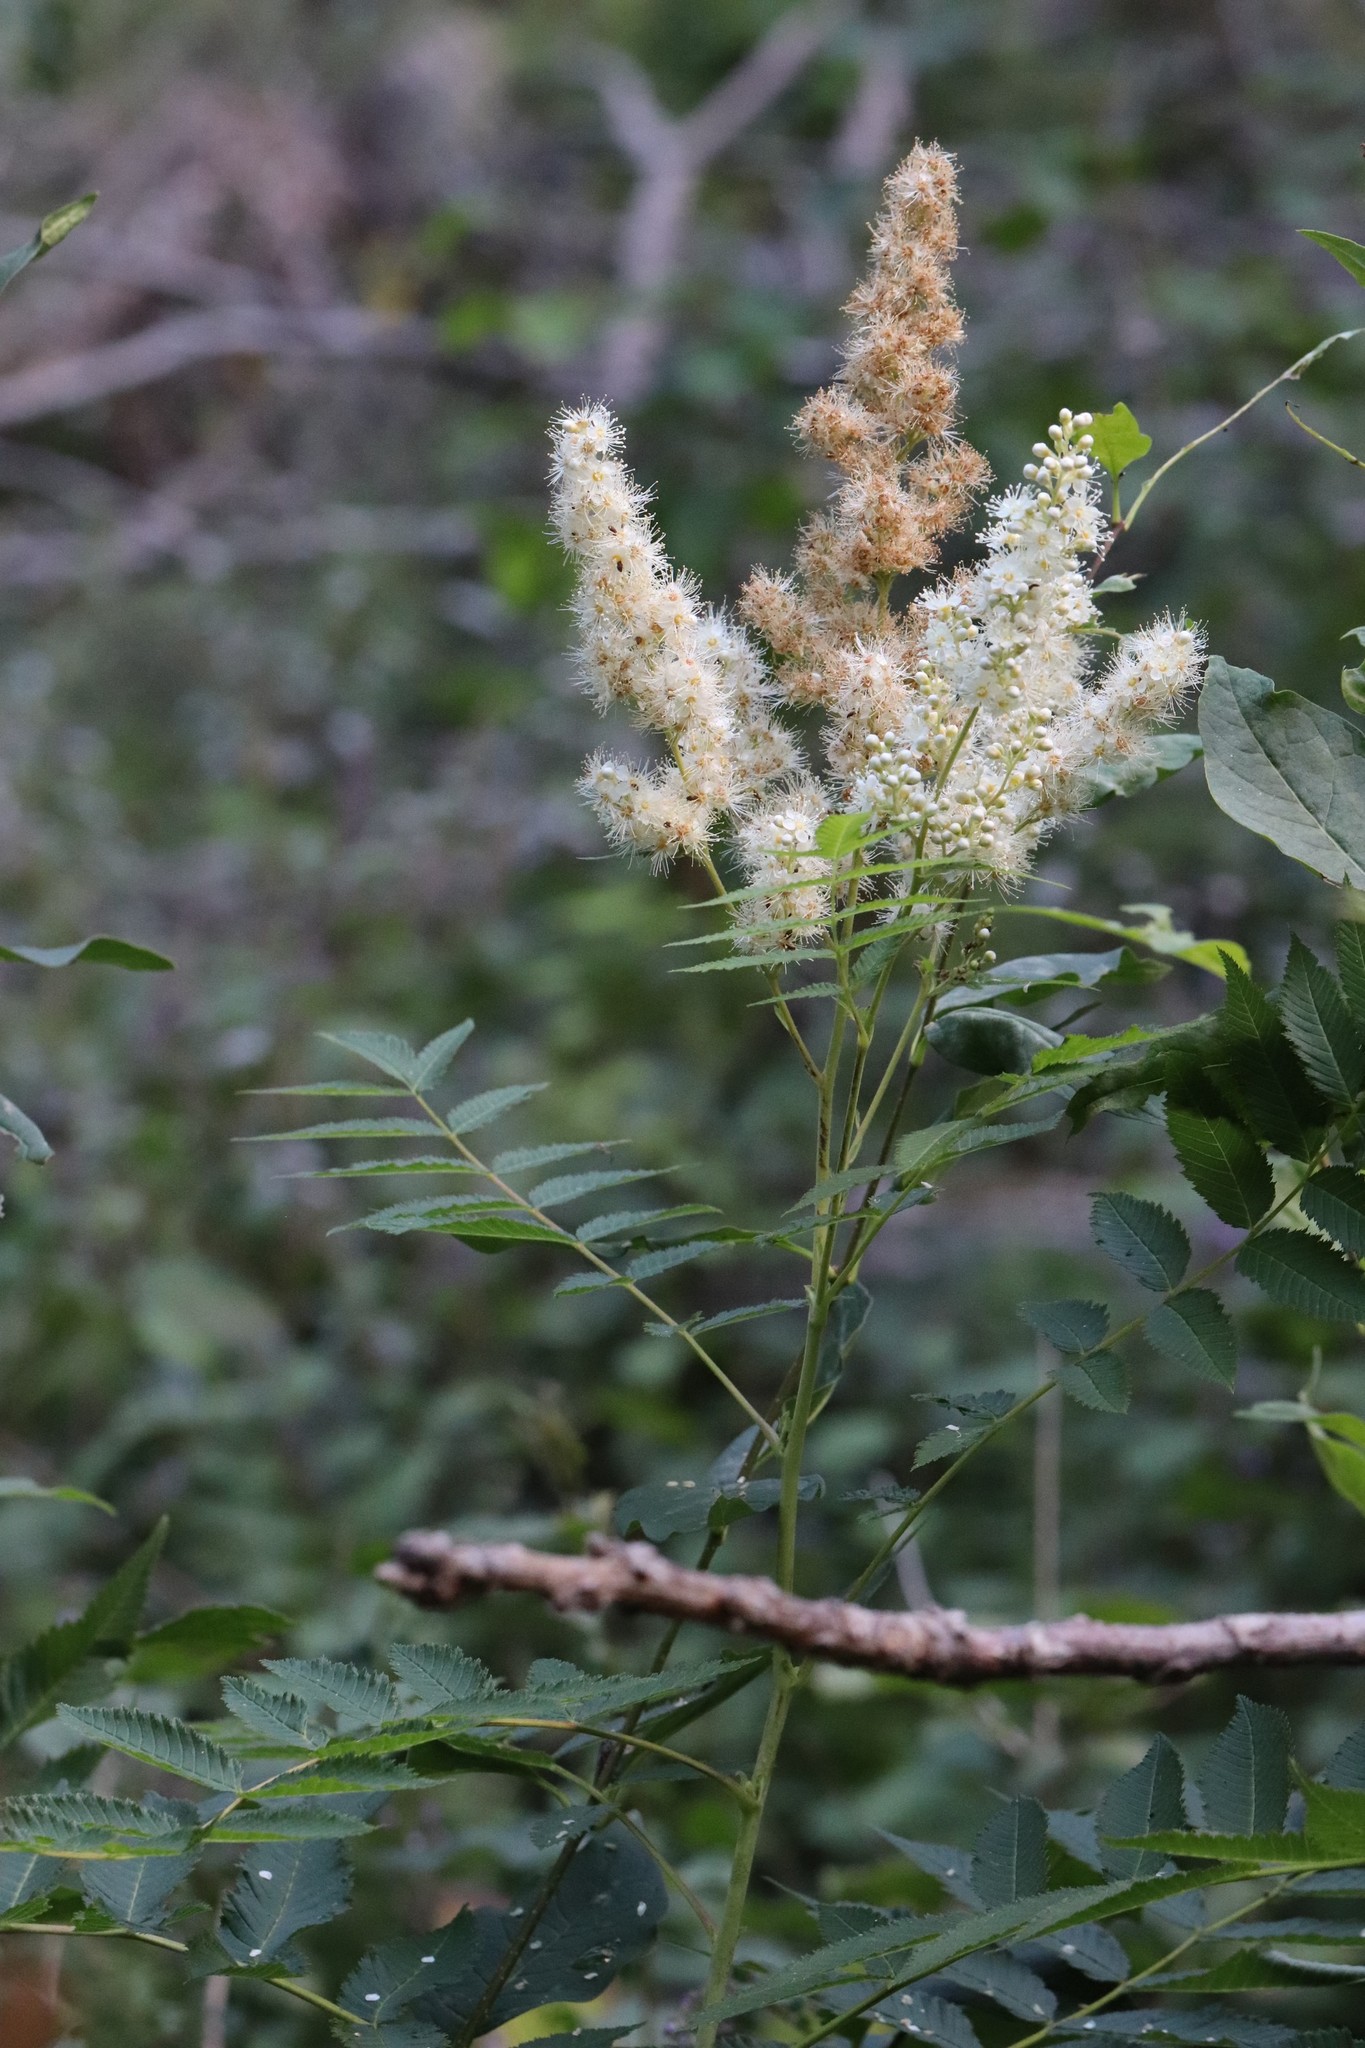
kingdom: Plantae
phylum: Tracheophyta
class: Magnoliopsida
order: Rosales
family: Rosaceae
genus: Sorbaria
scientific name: Sorbaria sorbifolia
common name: False spiraea
